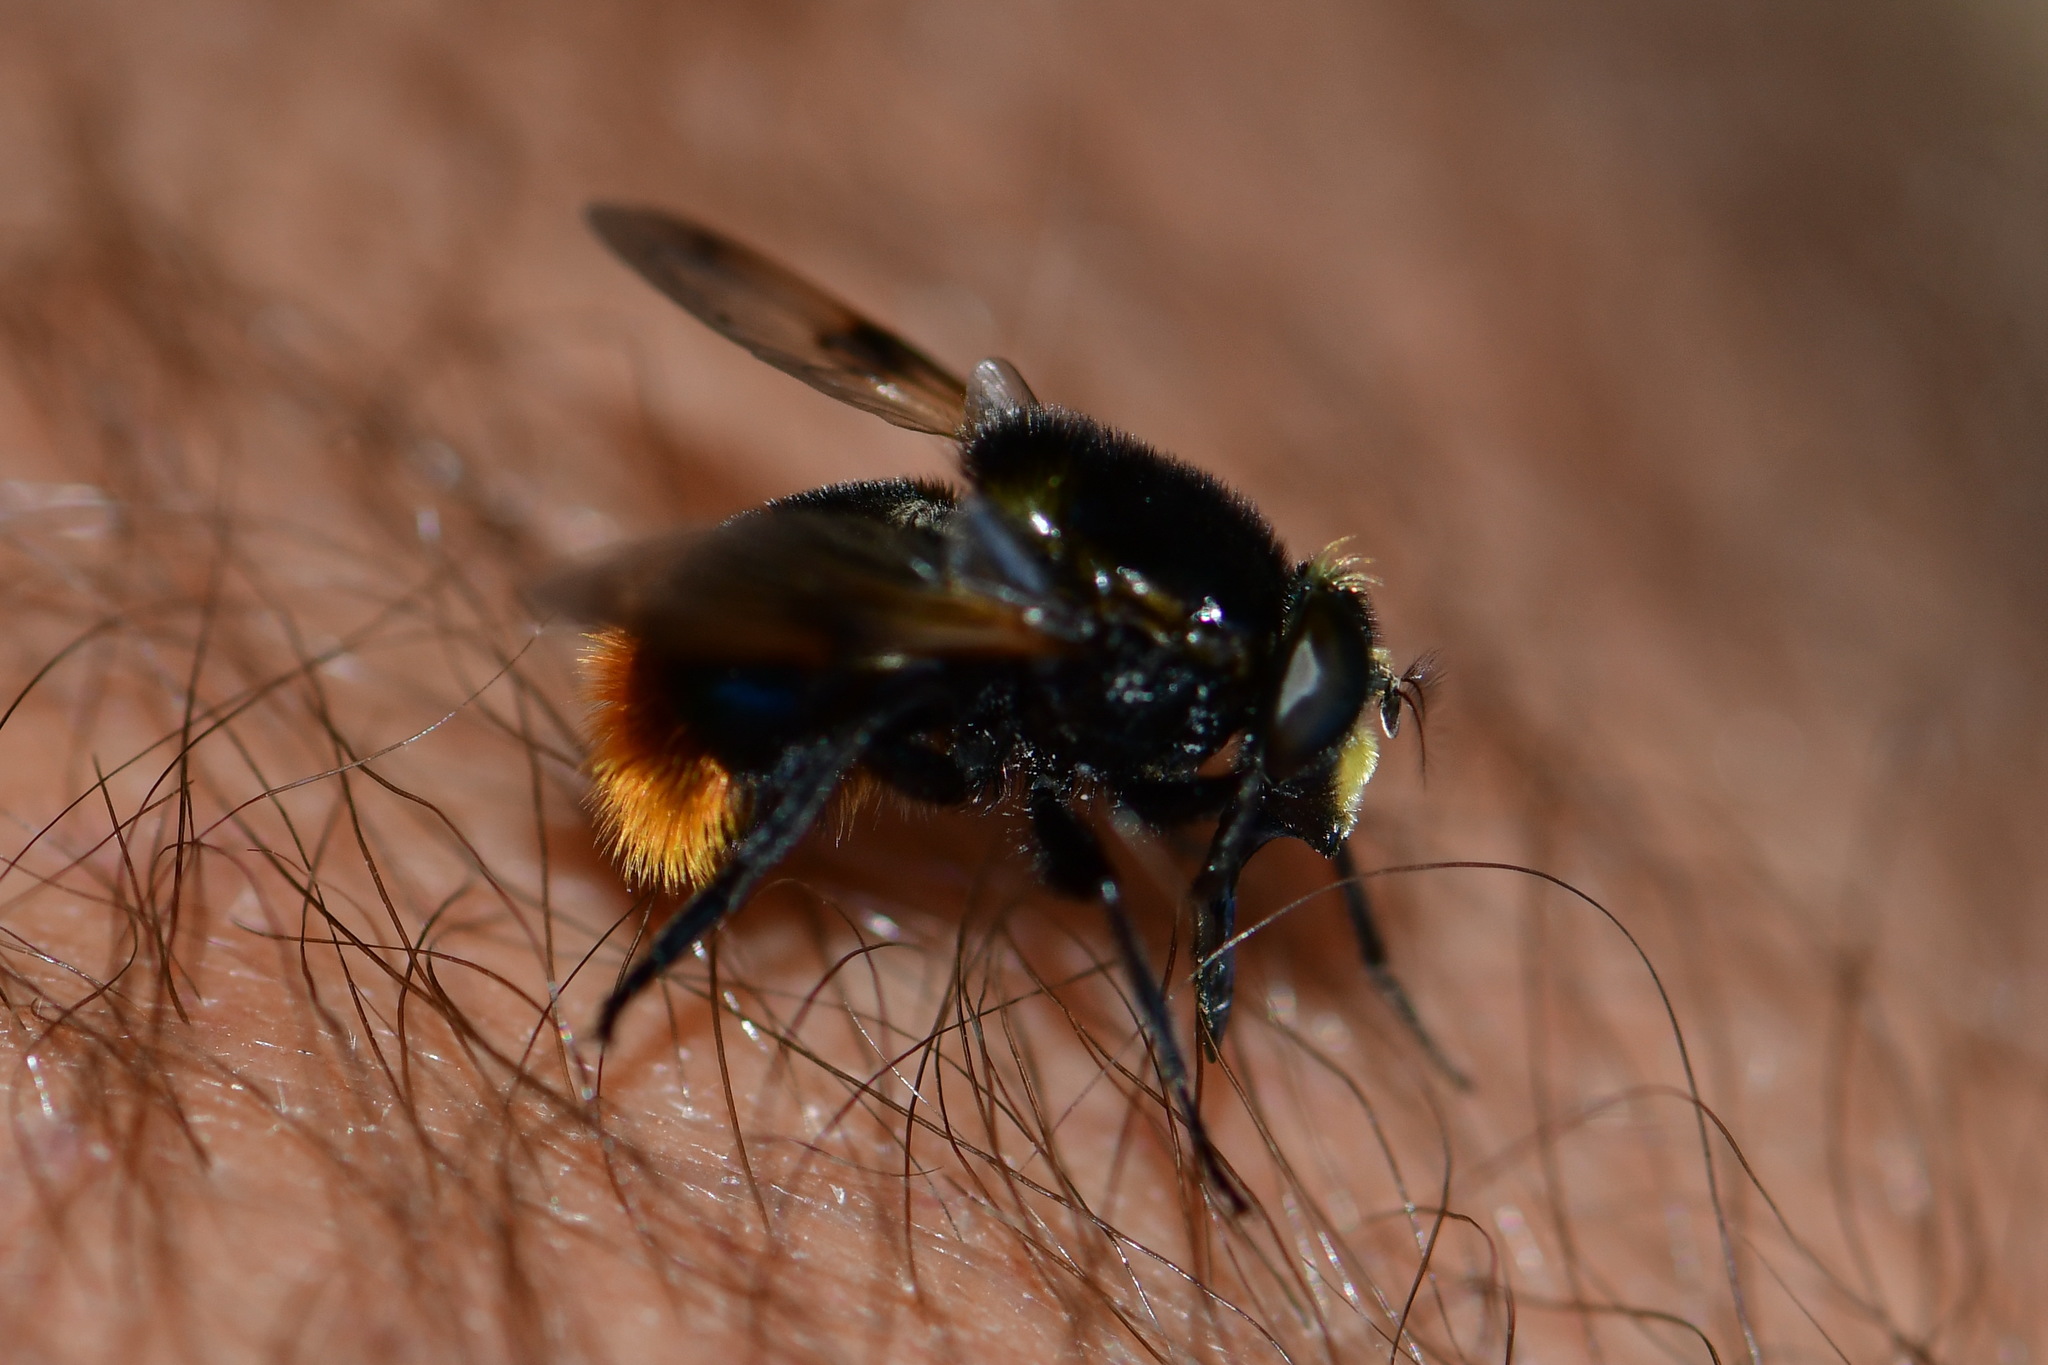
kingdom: Animalia
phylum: Arthropoda
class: Insecta
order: Diptera
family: Syrphidae
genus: Volucella
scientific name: Volucella bombylans
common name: Bumble bee hover fly
